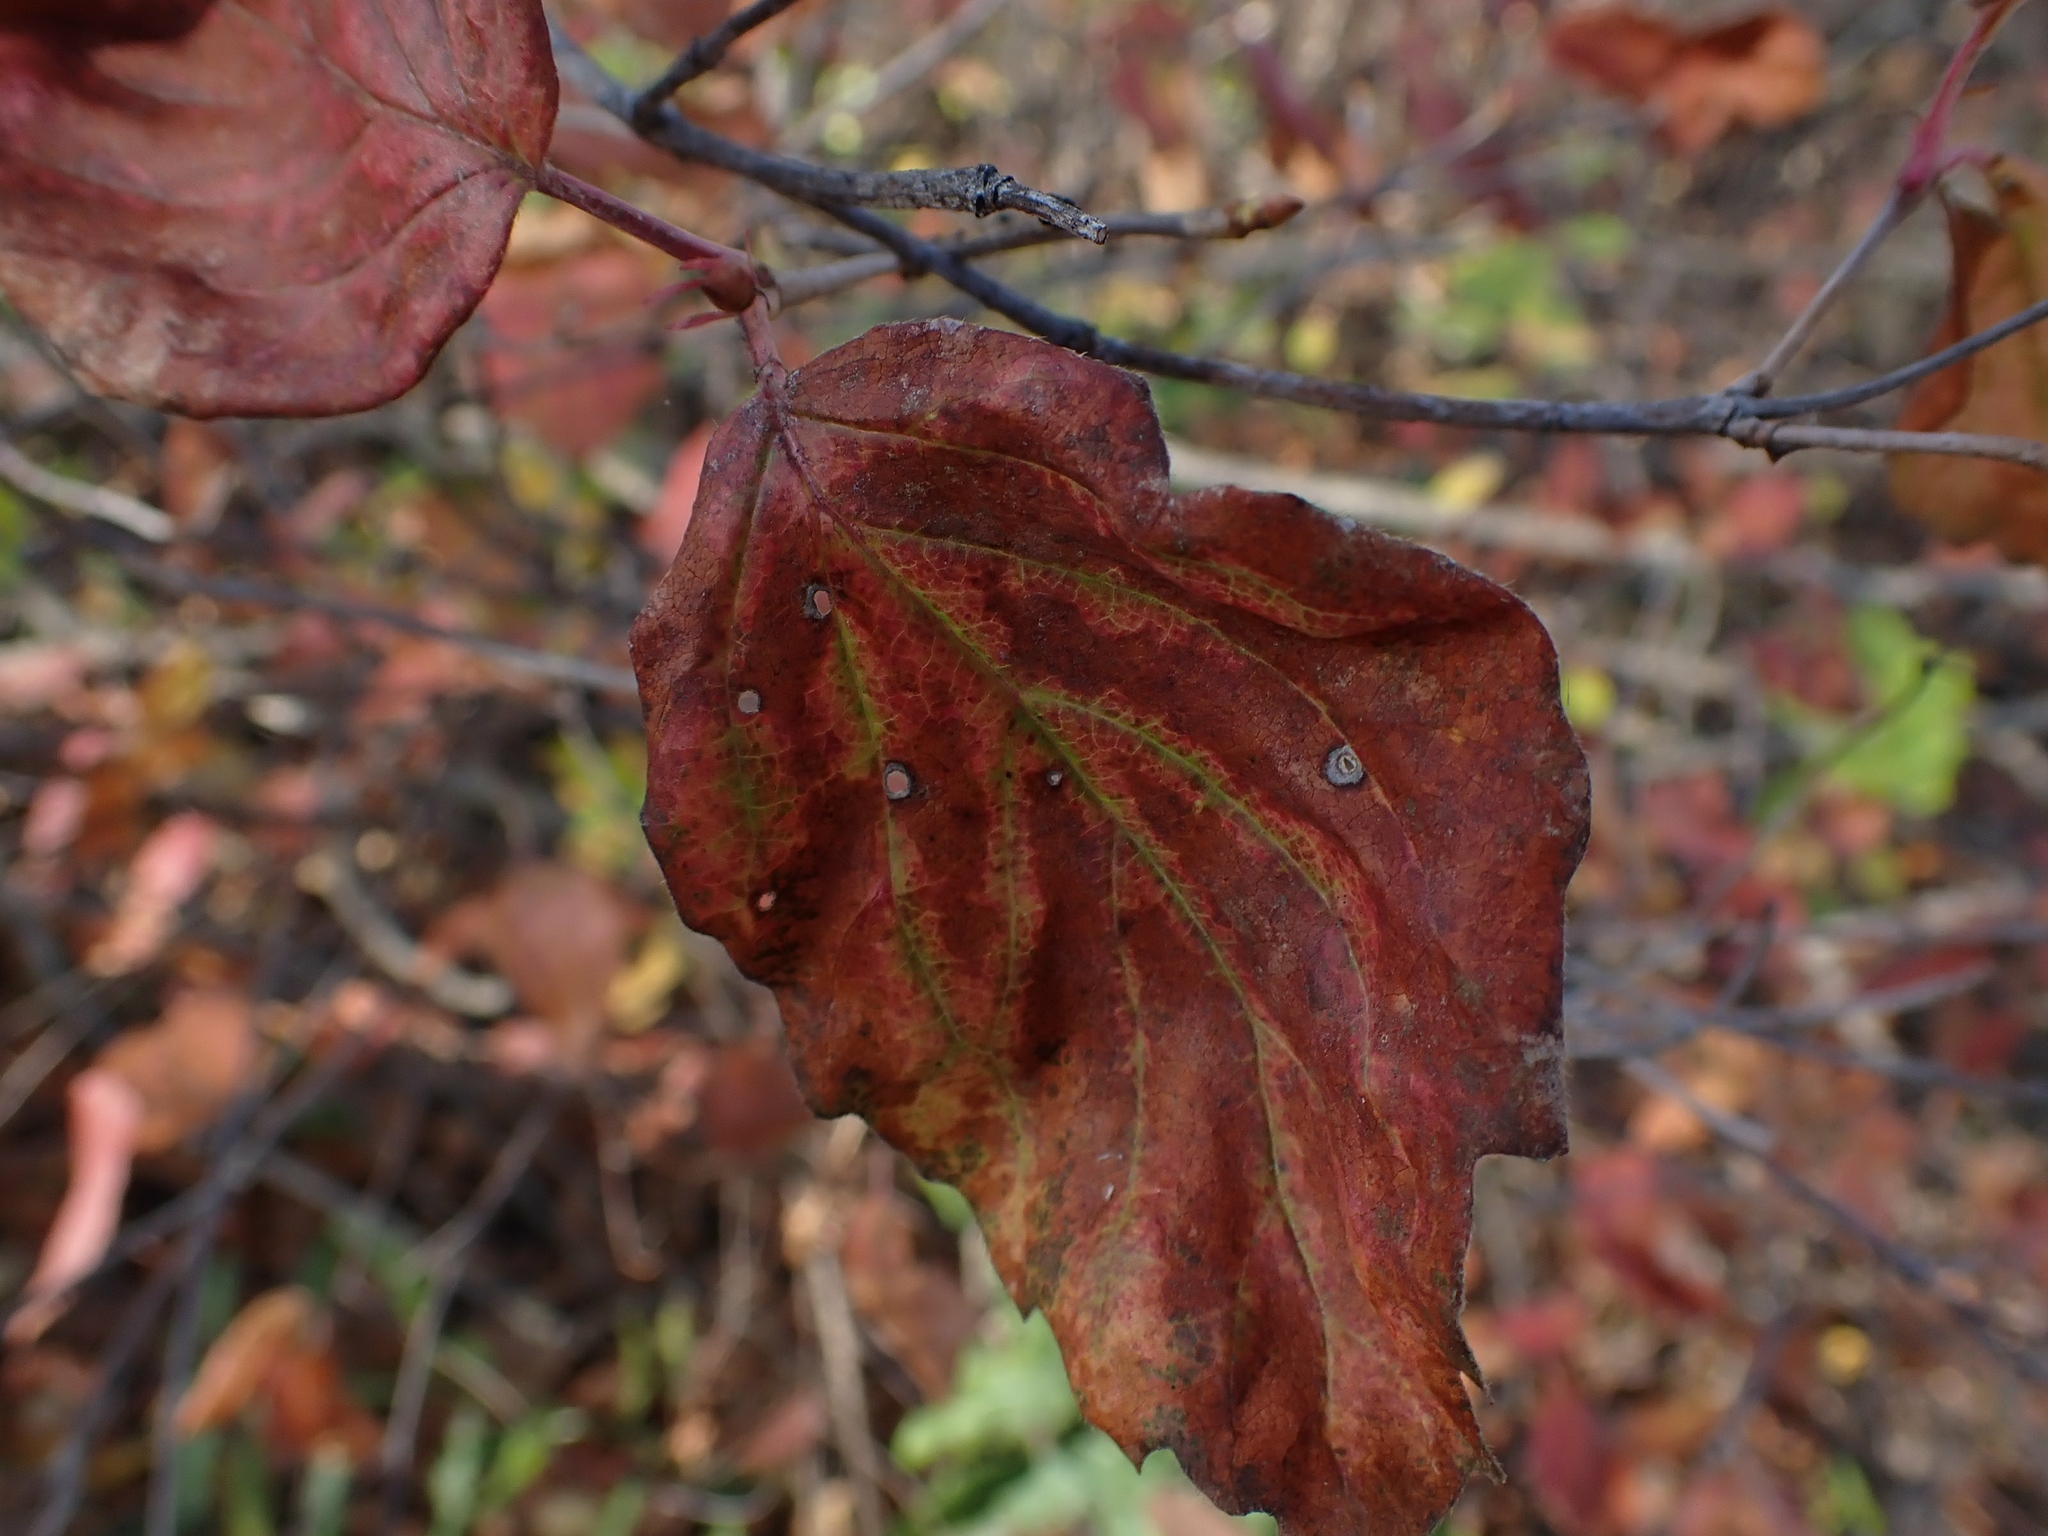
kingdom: Plantae
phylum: Tracheophyta
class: Magnoliopsida
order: Dipsacales
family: Viburnaceae
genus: Viburnum
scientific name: Viburnum rafinesqueanum
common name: Downy arrow-wood
